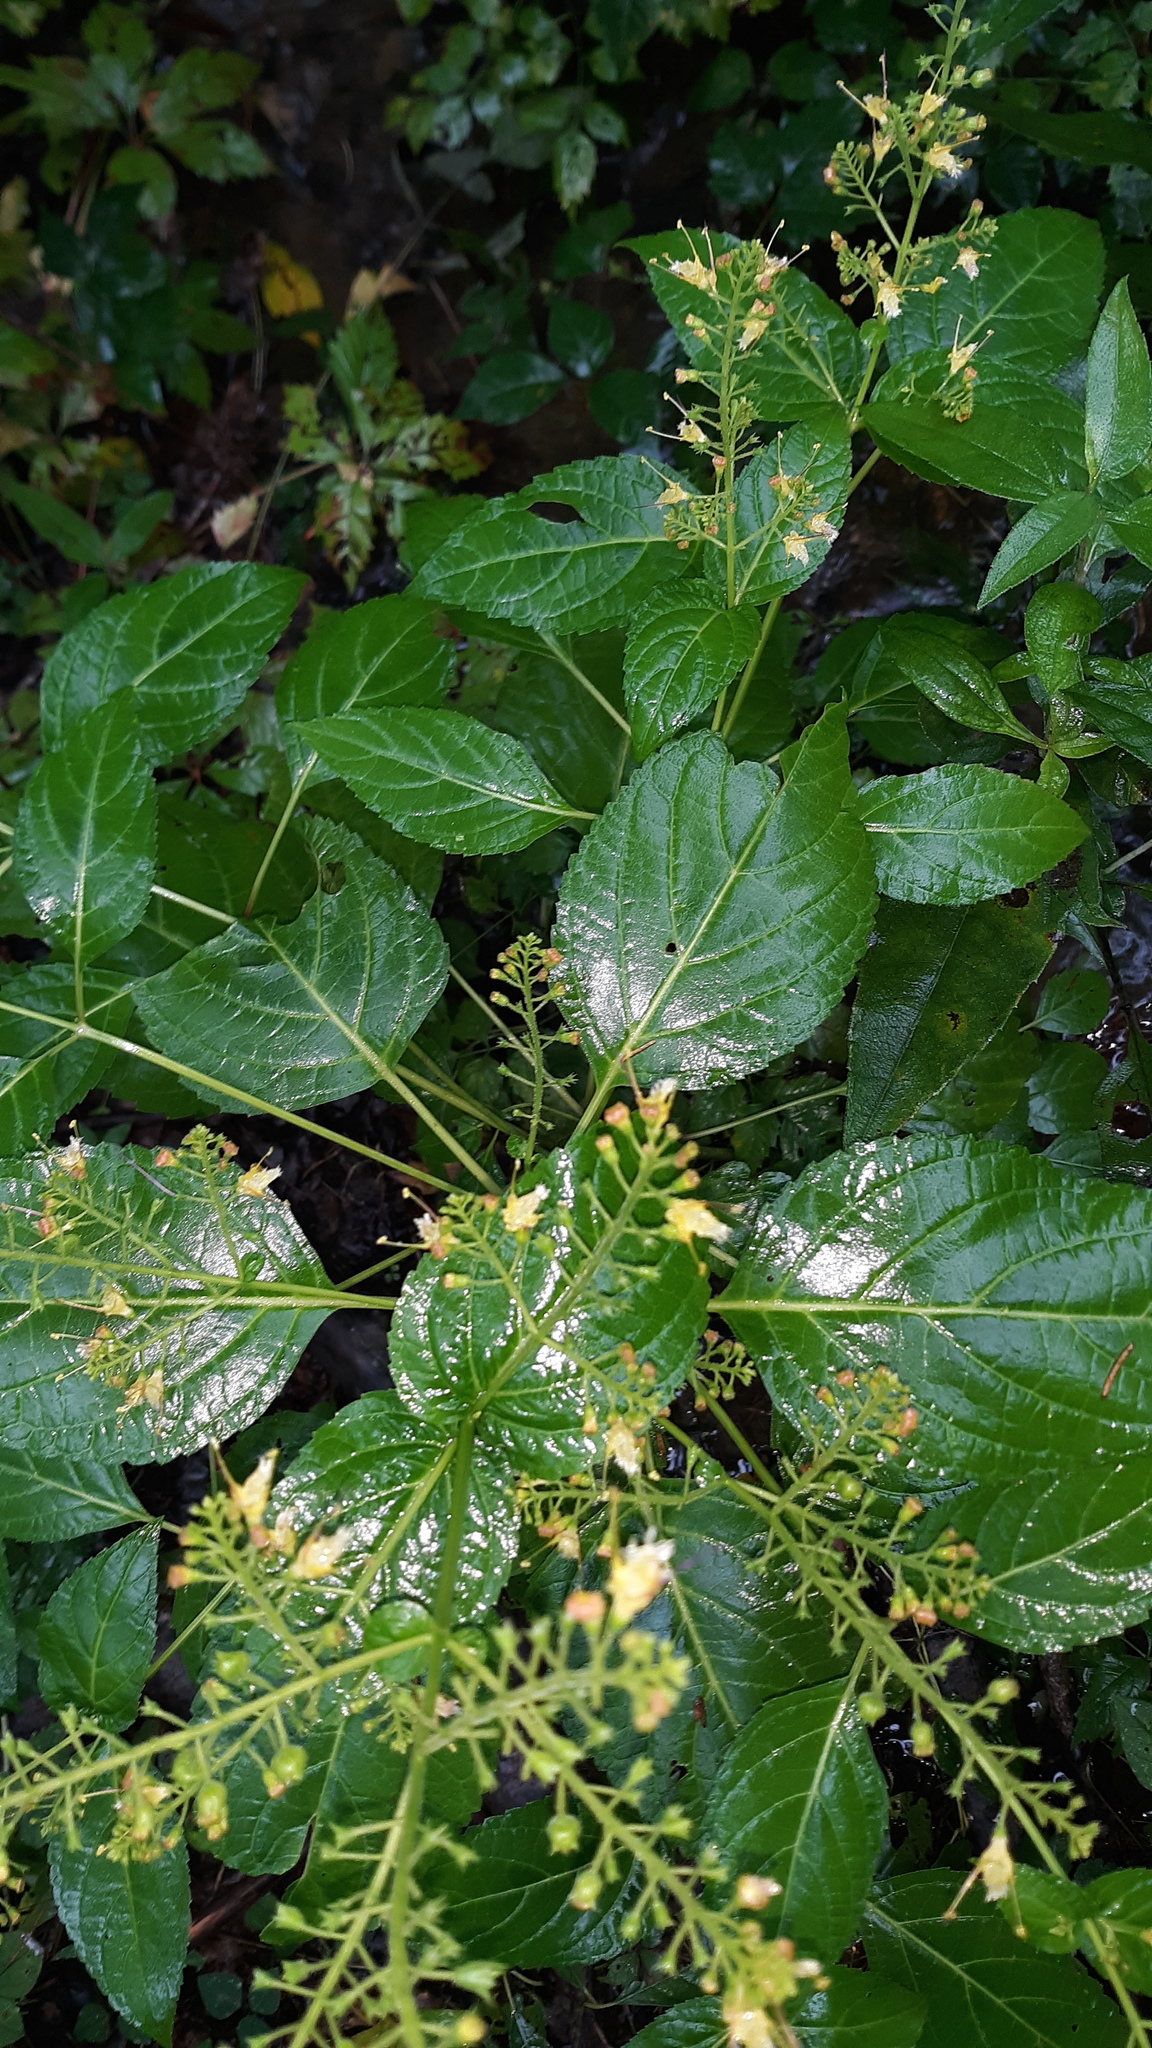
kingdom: Plantae
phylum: Tracheophyta
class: Magnoliopsida
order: Lamiales
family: Lamiaceae
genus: Collinsonia
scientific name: Collinsonia canadensis
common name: Northern horsebalm
